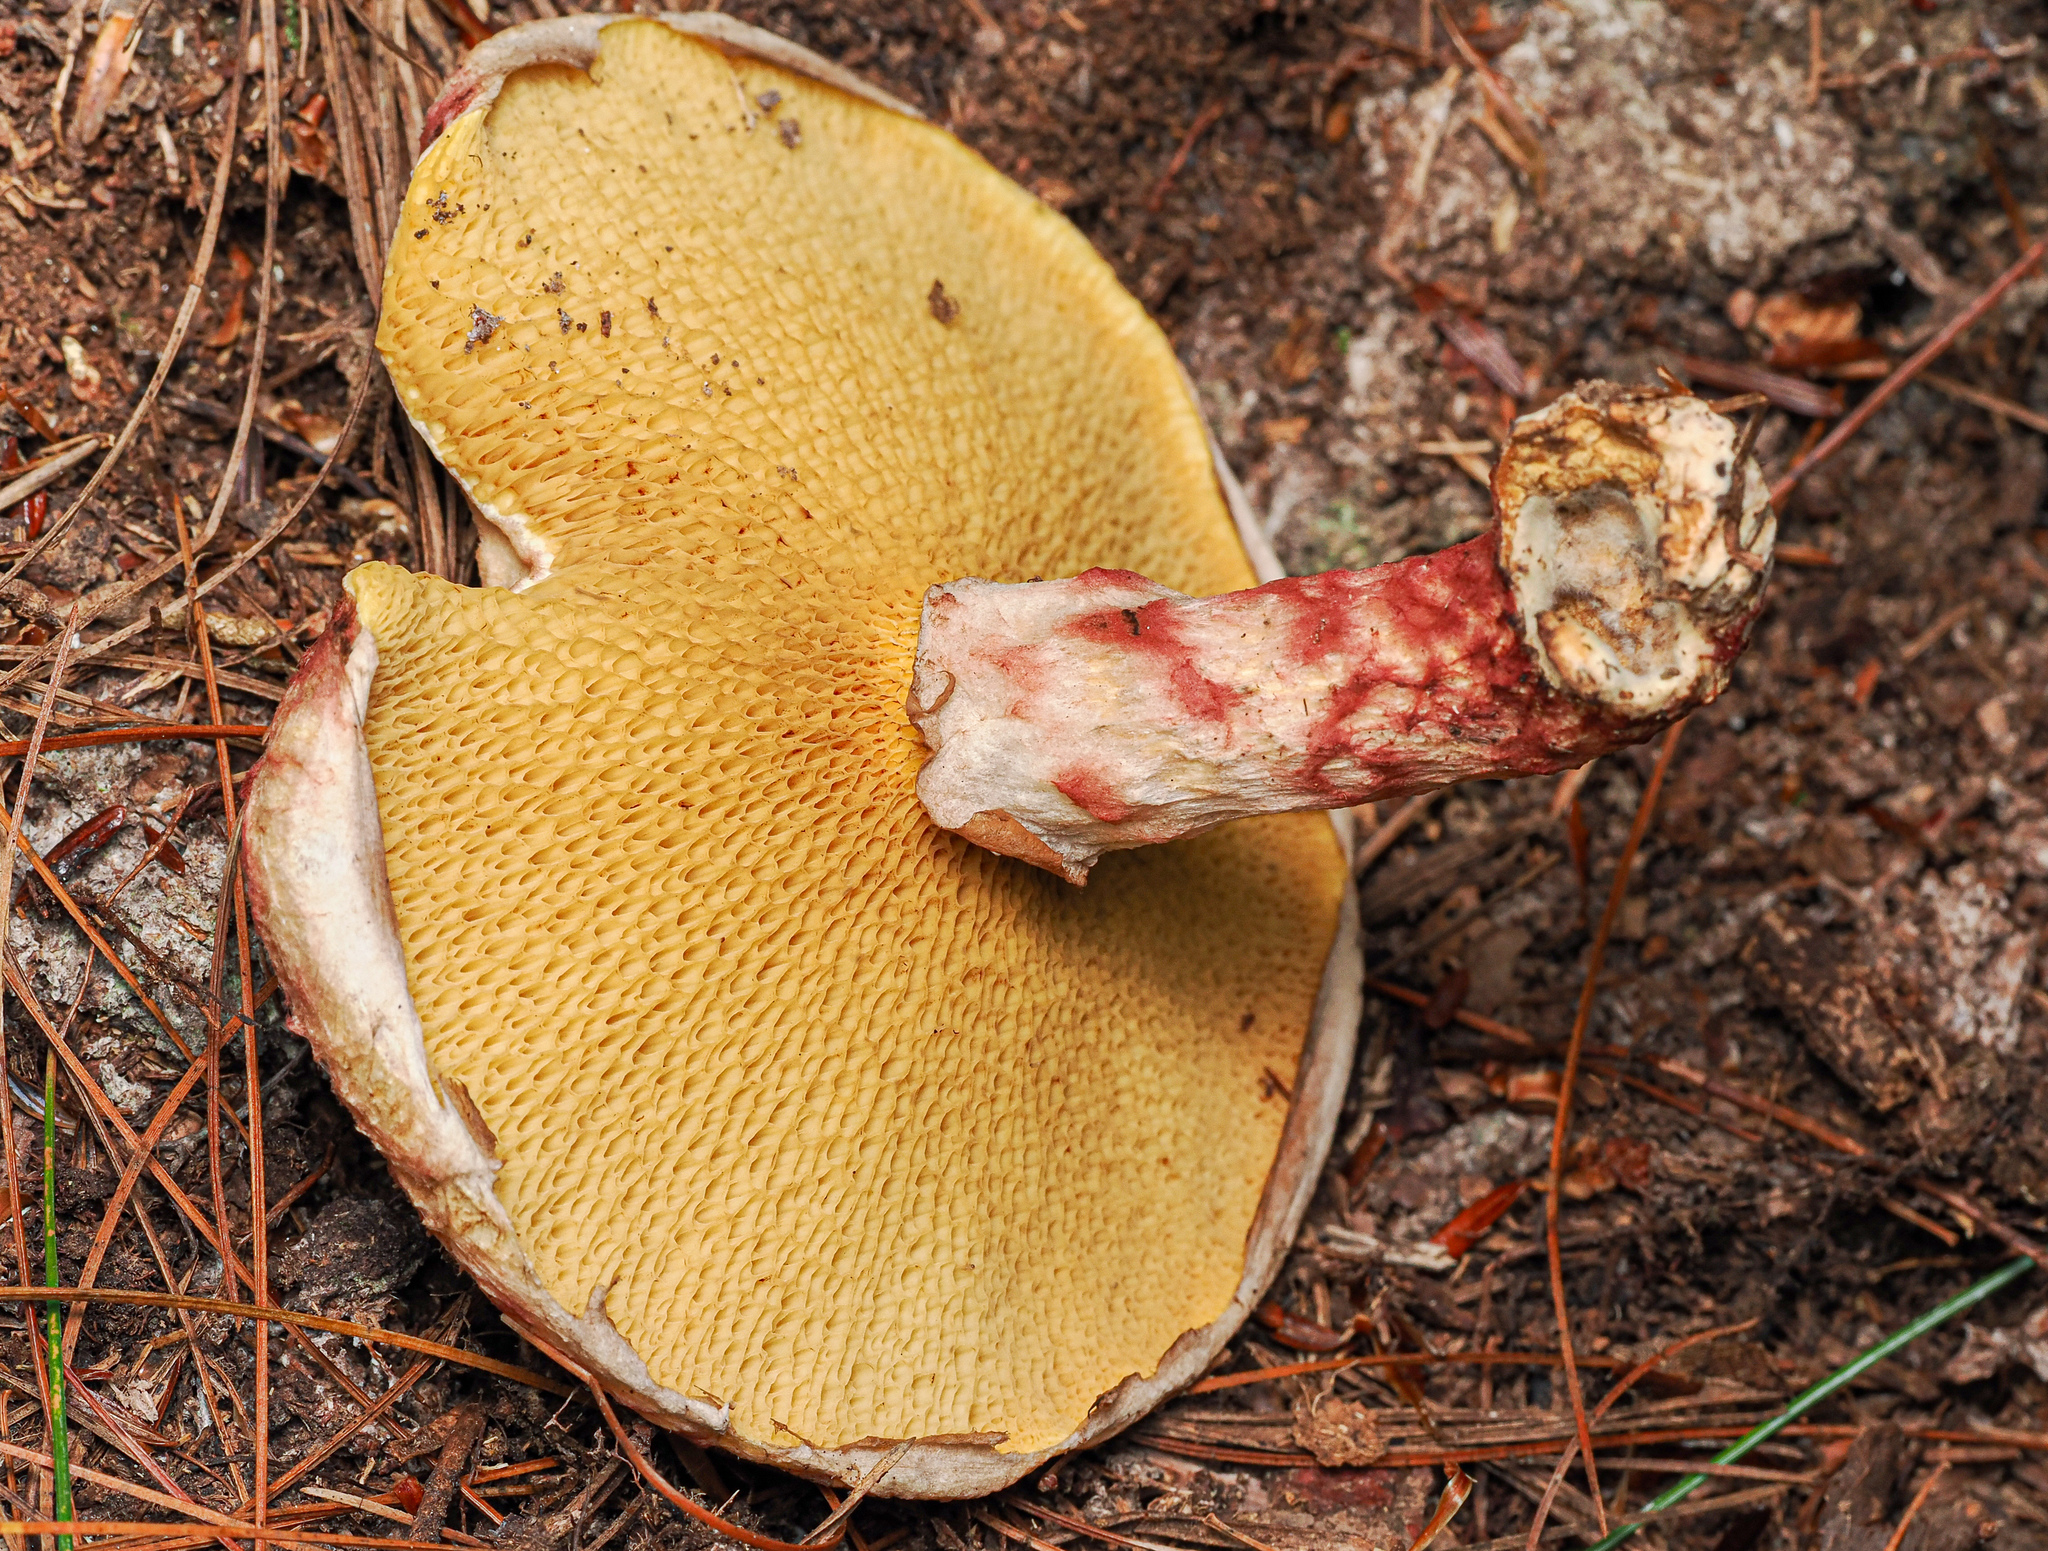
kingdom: Fungi
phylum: Basidiomycota
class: Agaricomycetes
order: Boletales
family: Suillaceae
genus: Suillus
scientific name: Suillus spraguei
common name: Painted suillus
